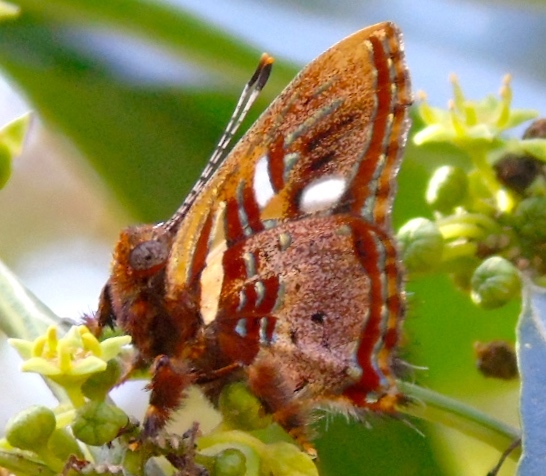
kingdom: Animalia
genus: Anteros
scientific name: Anteros carausius
